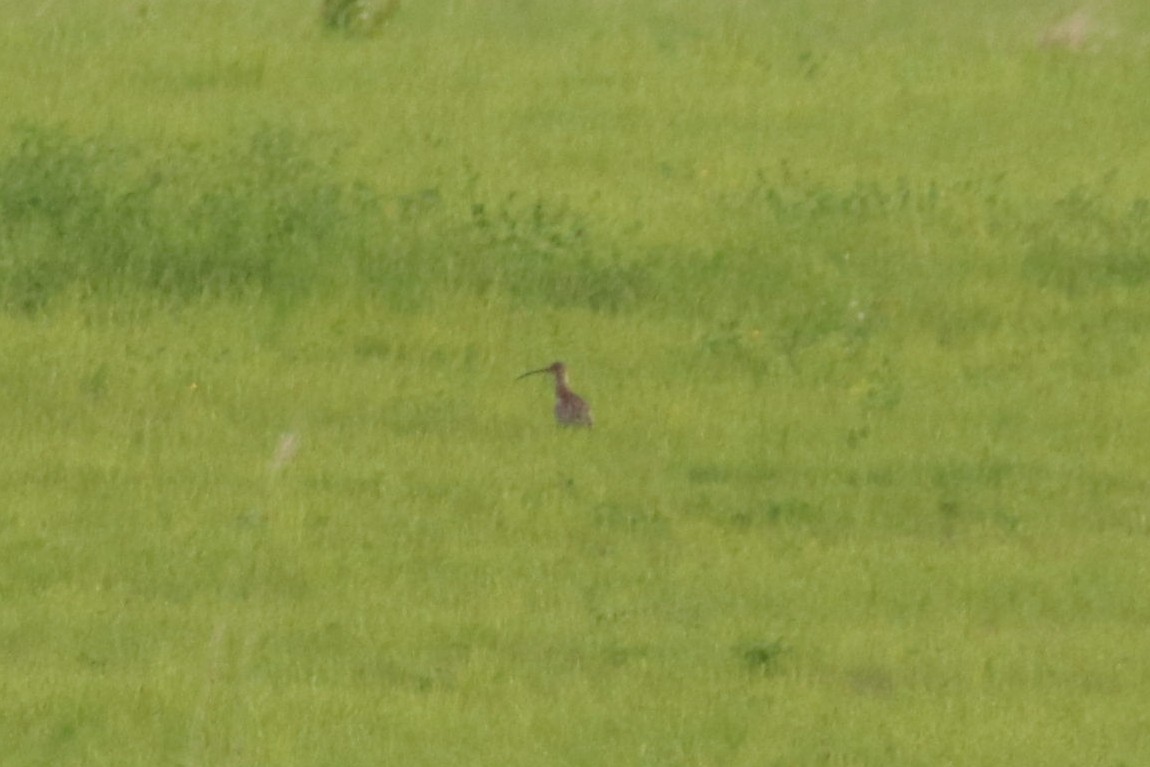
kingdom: Animalia
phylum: Chordata
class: Aves
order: Charadriiformes
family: Scolopacidae
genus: Numenius
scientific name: Numenius arquata
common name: Eurasian curlew
